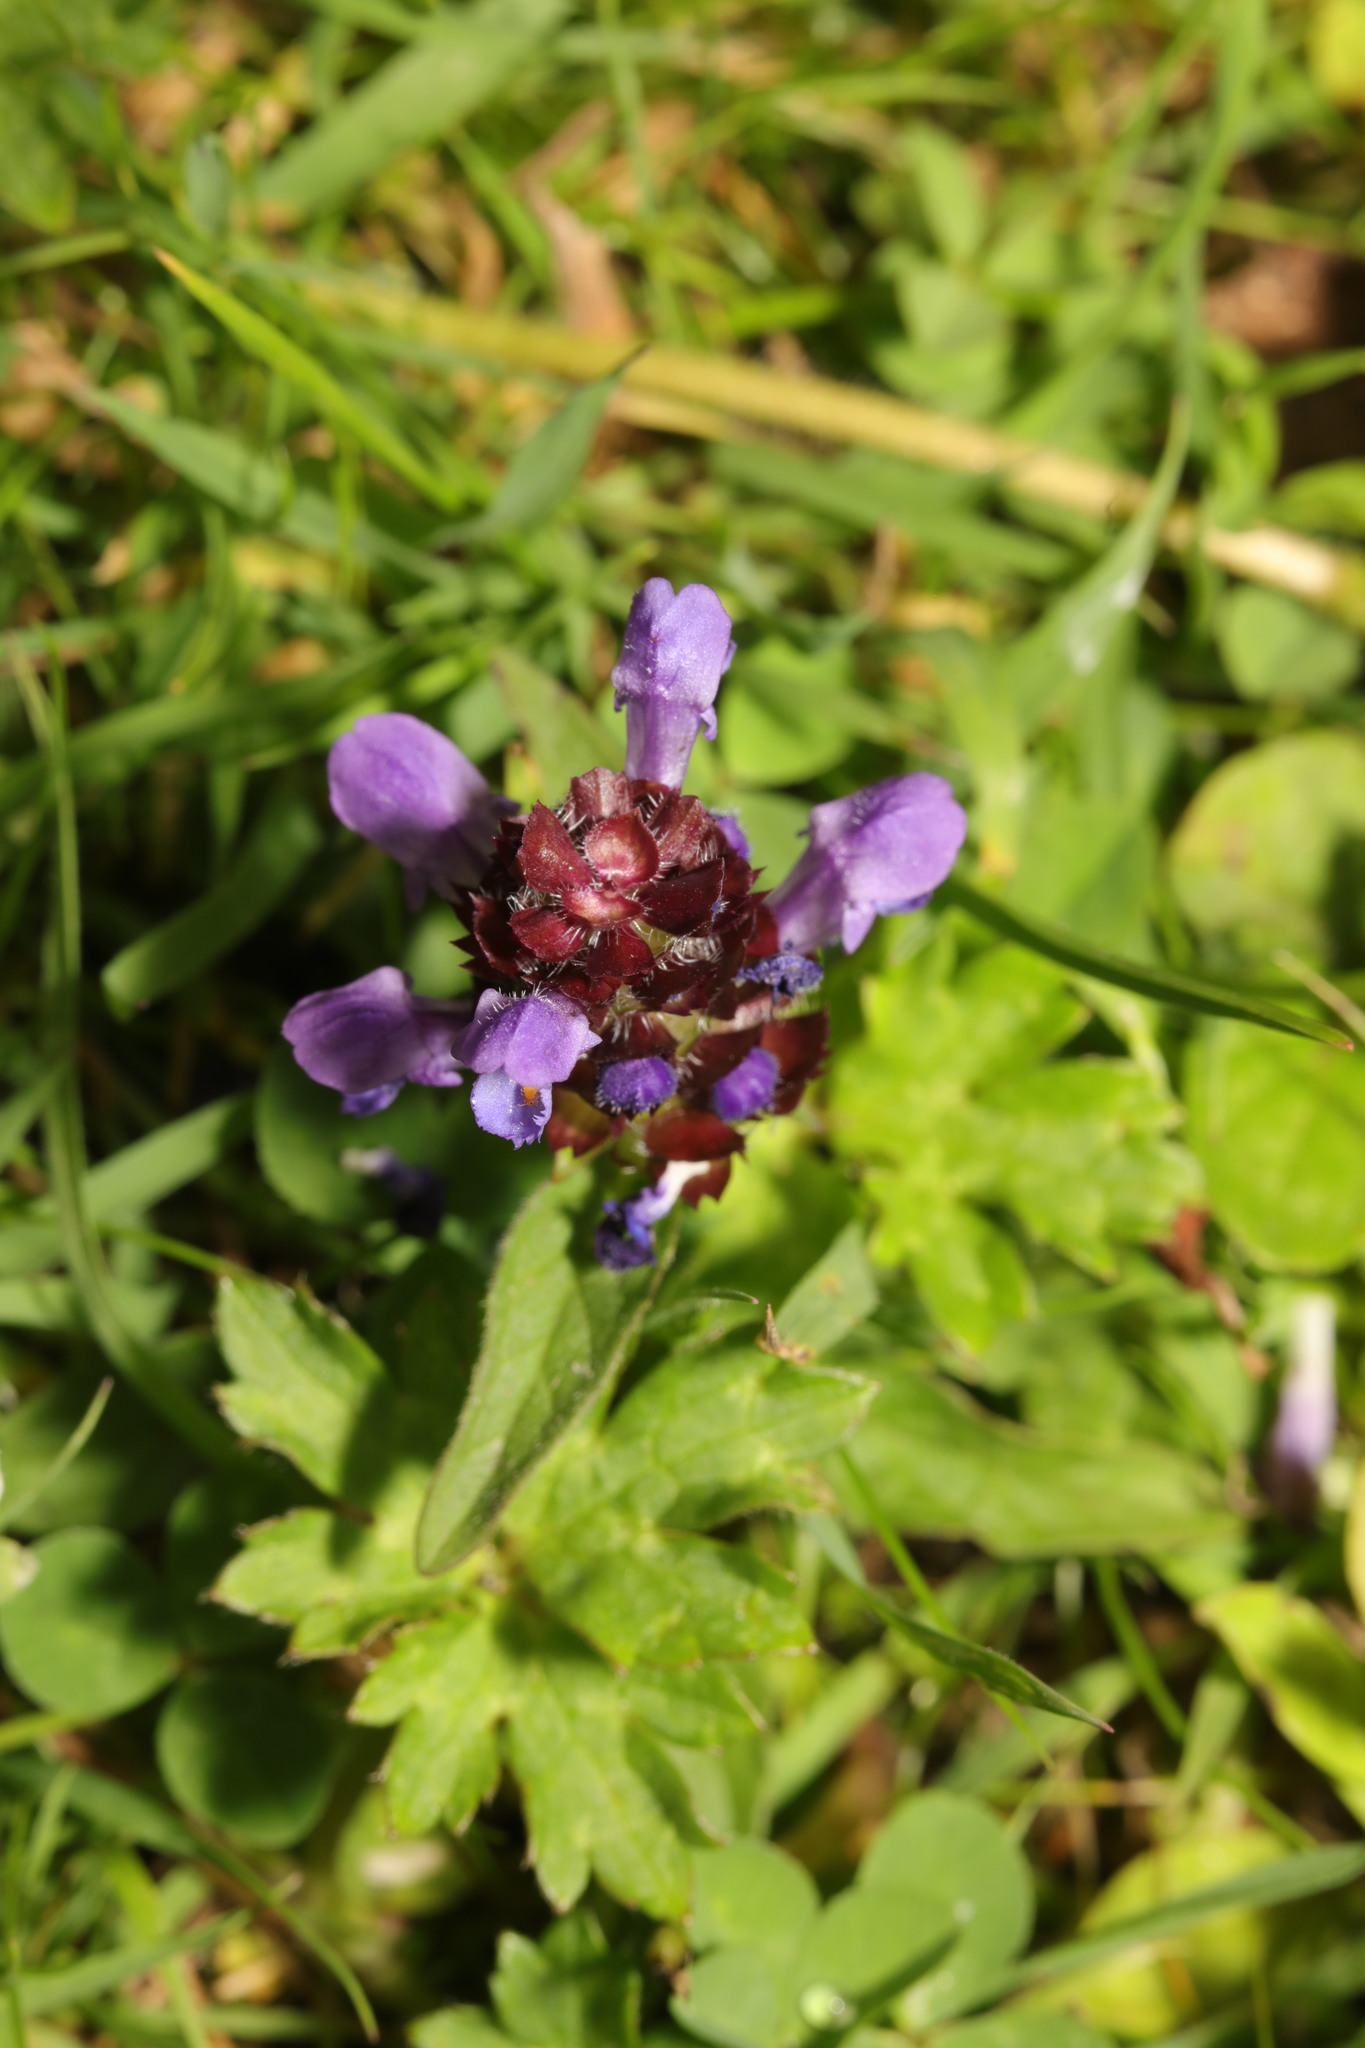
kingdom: Plantae
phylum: Tracheophyta
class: Magnoliopsida
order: Lamiales
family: Lamiaceae
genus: Prunella
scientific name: Prunella vulgaris
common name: Heal-all
